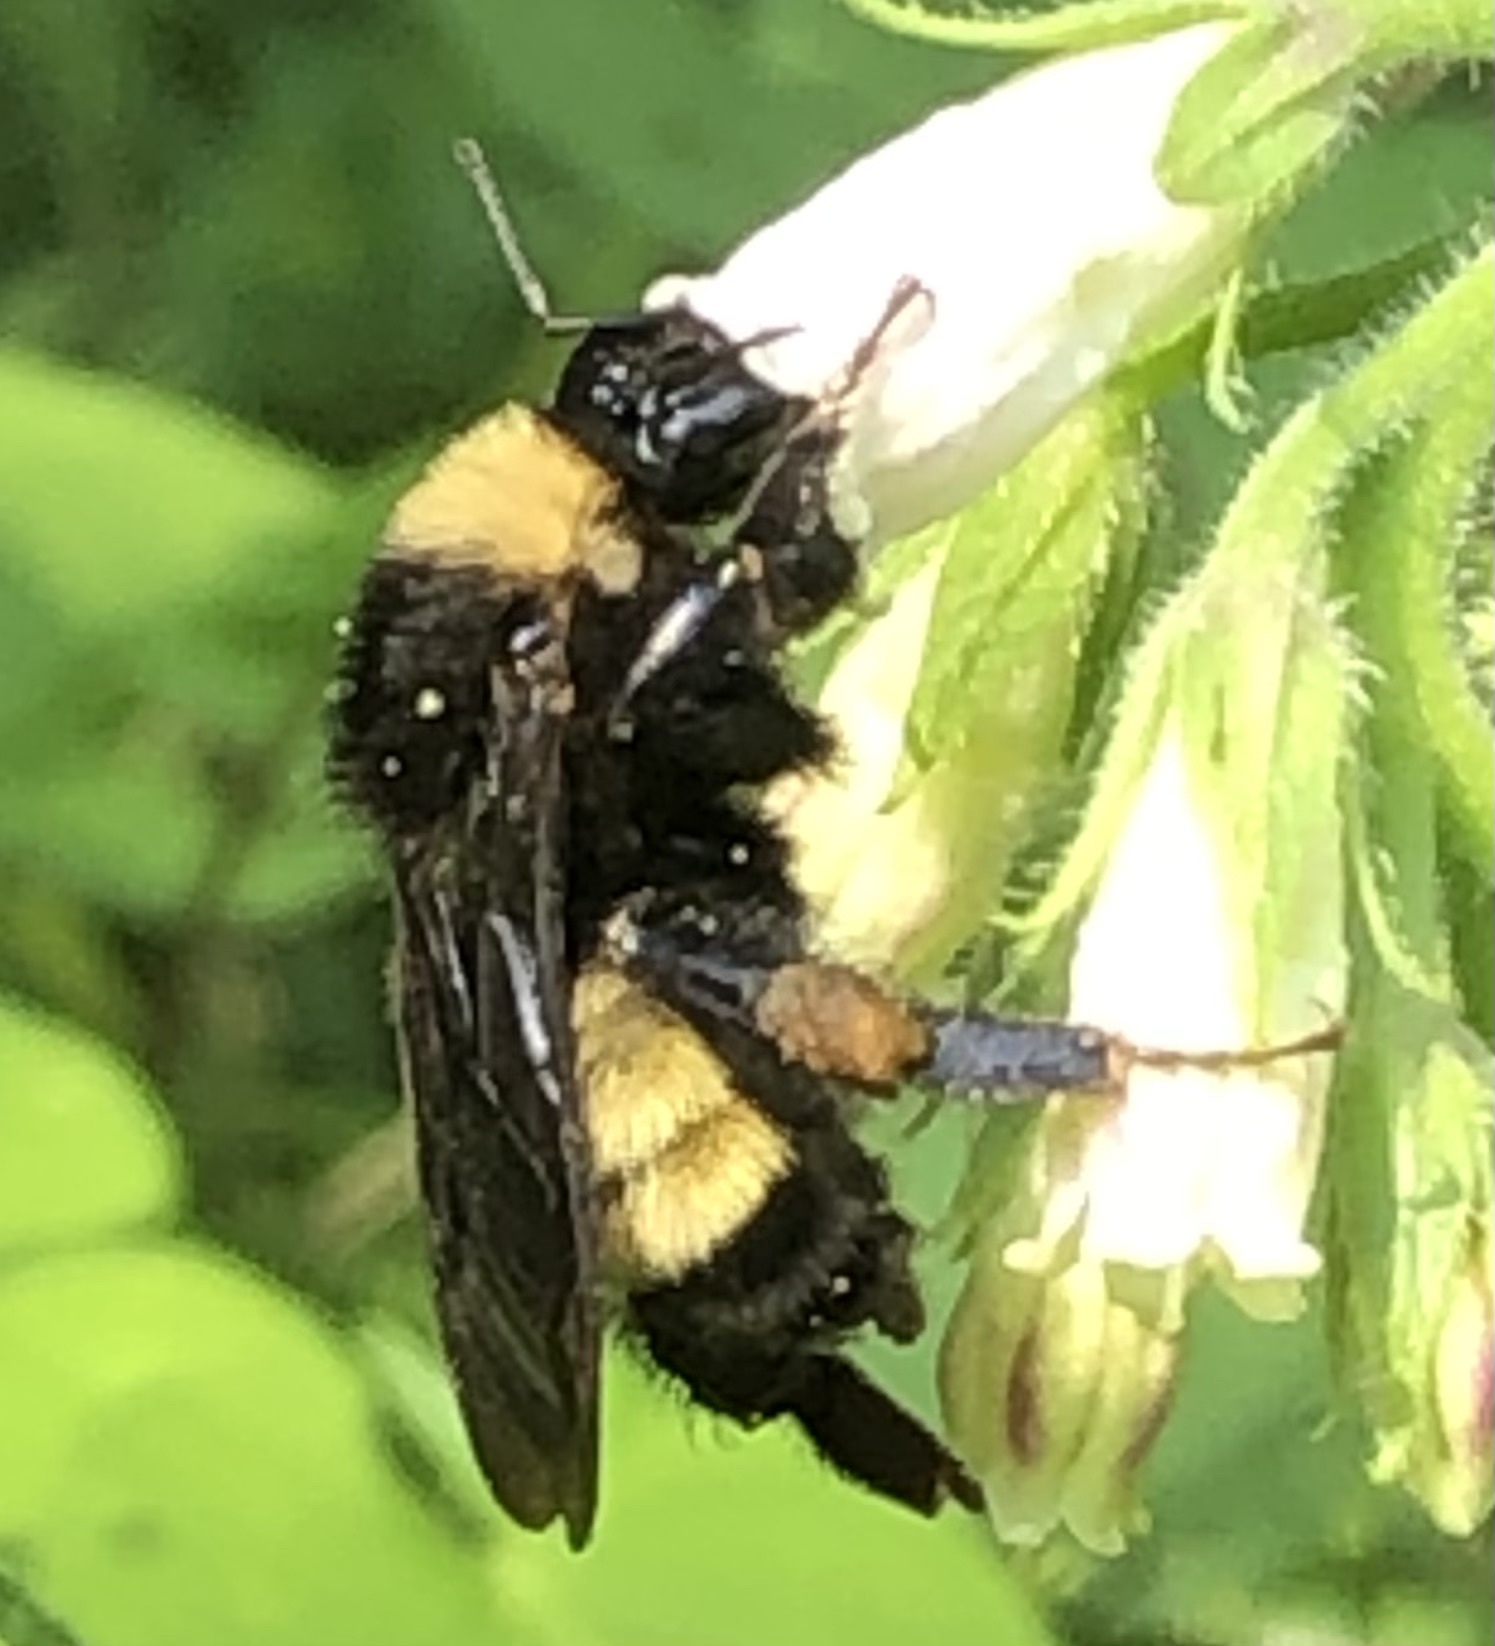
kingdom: Animalia
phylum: Arthropoda
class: Insecta
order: Hymenoptera
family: Apidae
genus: Bombus
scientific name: Bombus pensylvanicus
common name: Bumble bee
